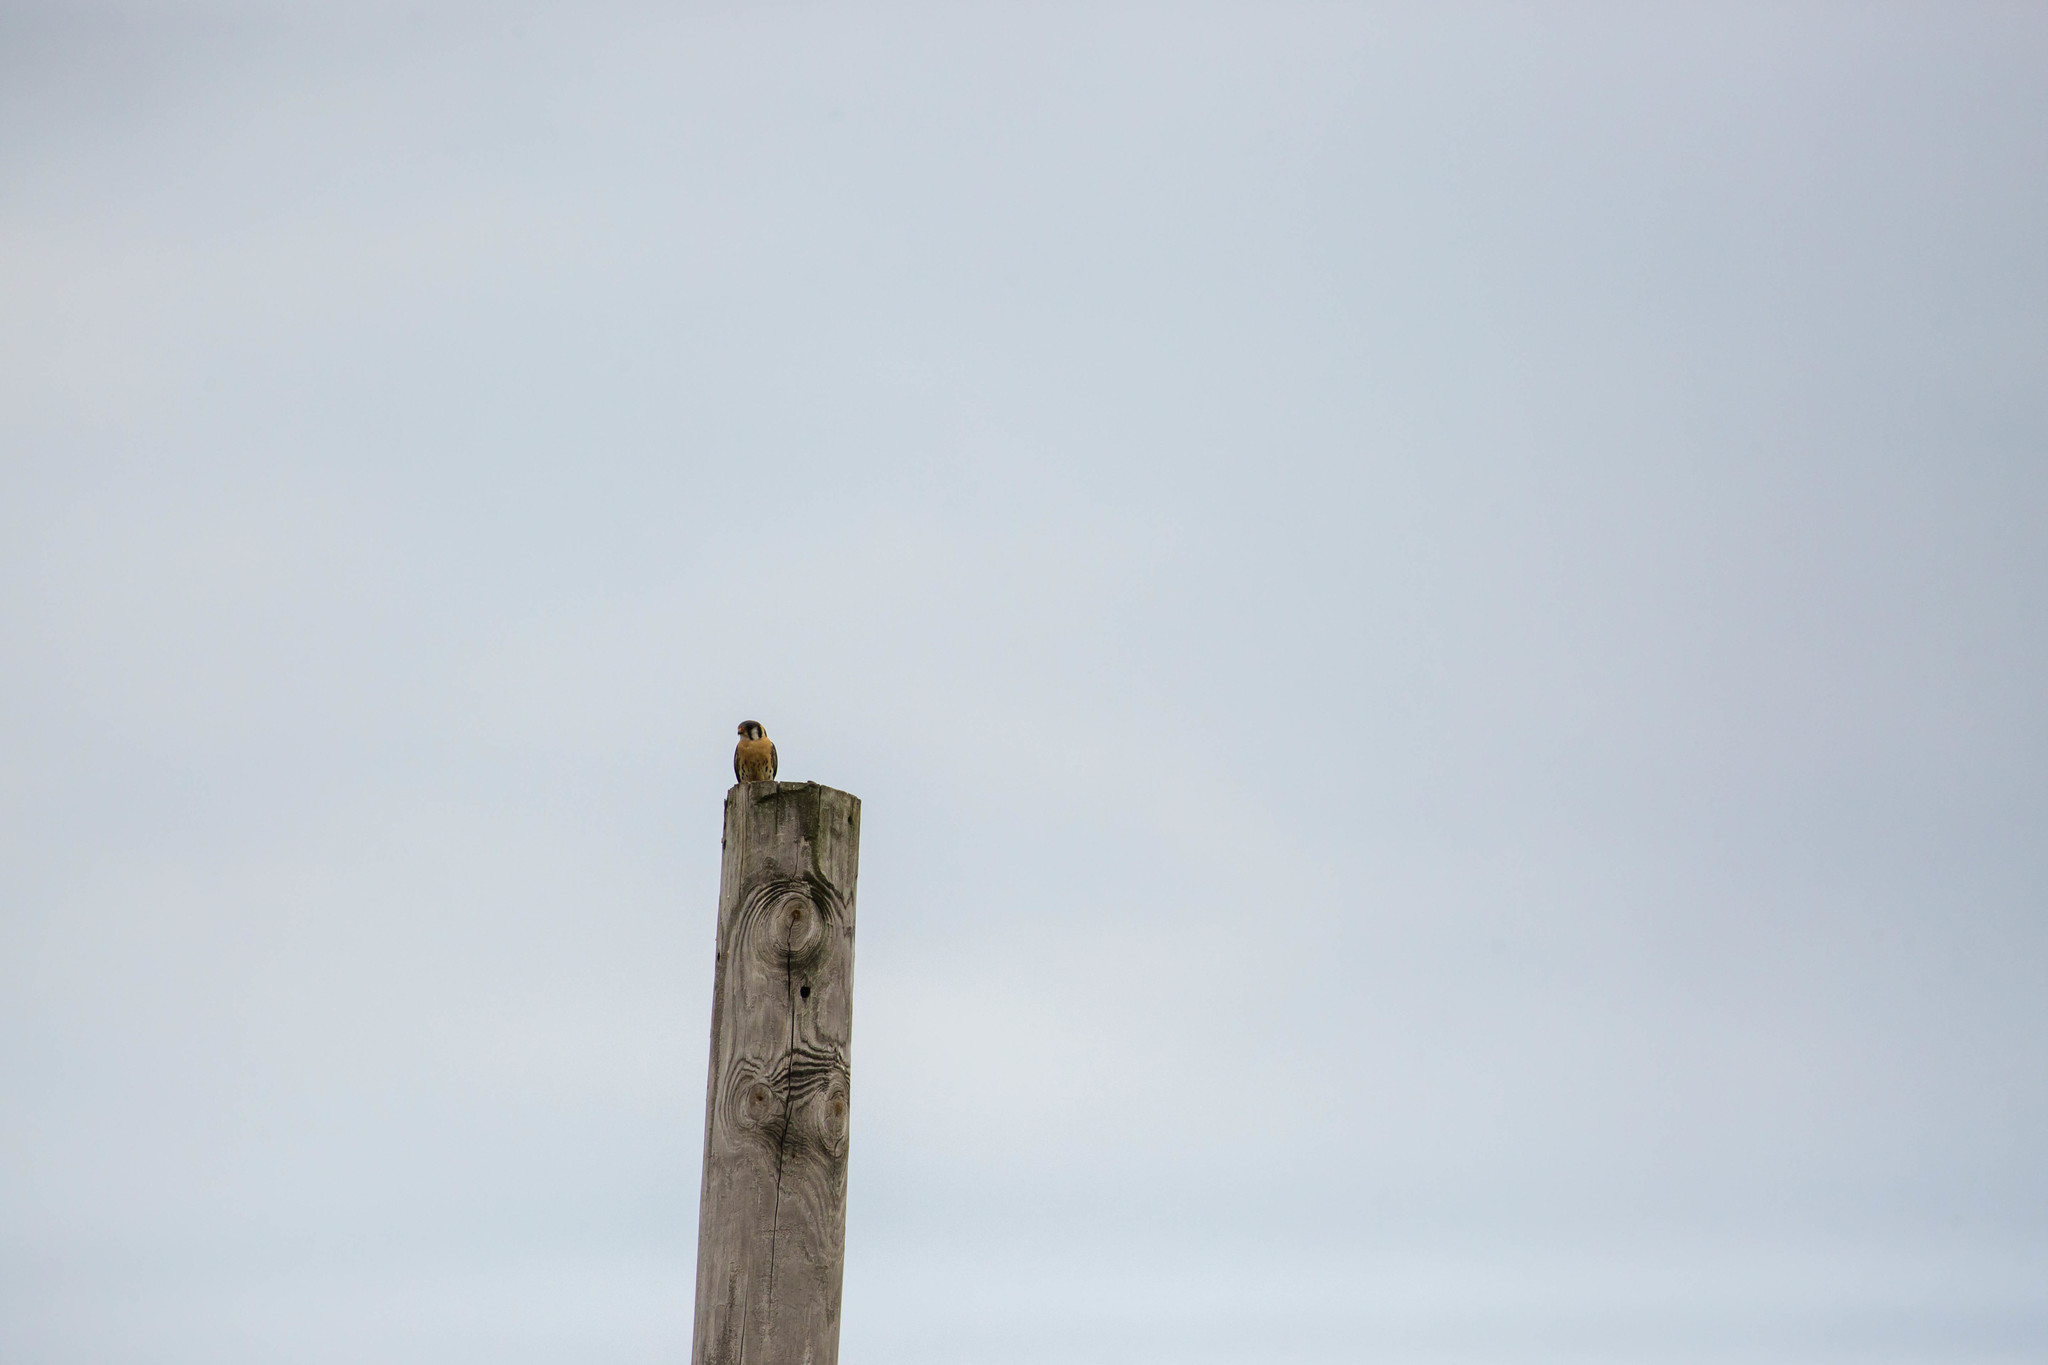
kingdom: Animalia
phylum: Chordata
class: Aves
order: Falconiformes
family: Falconidae
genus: Falco
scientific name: Falco sparverius
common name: American kestrel
